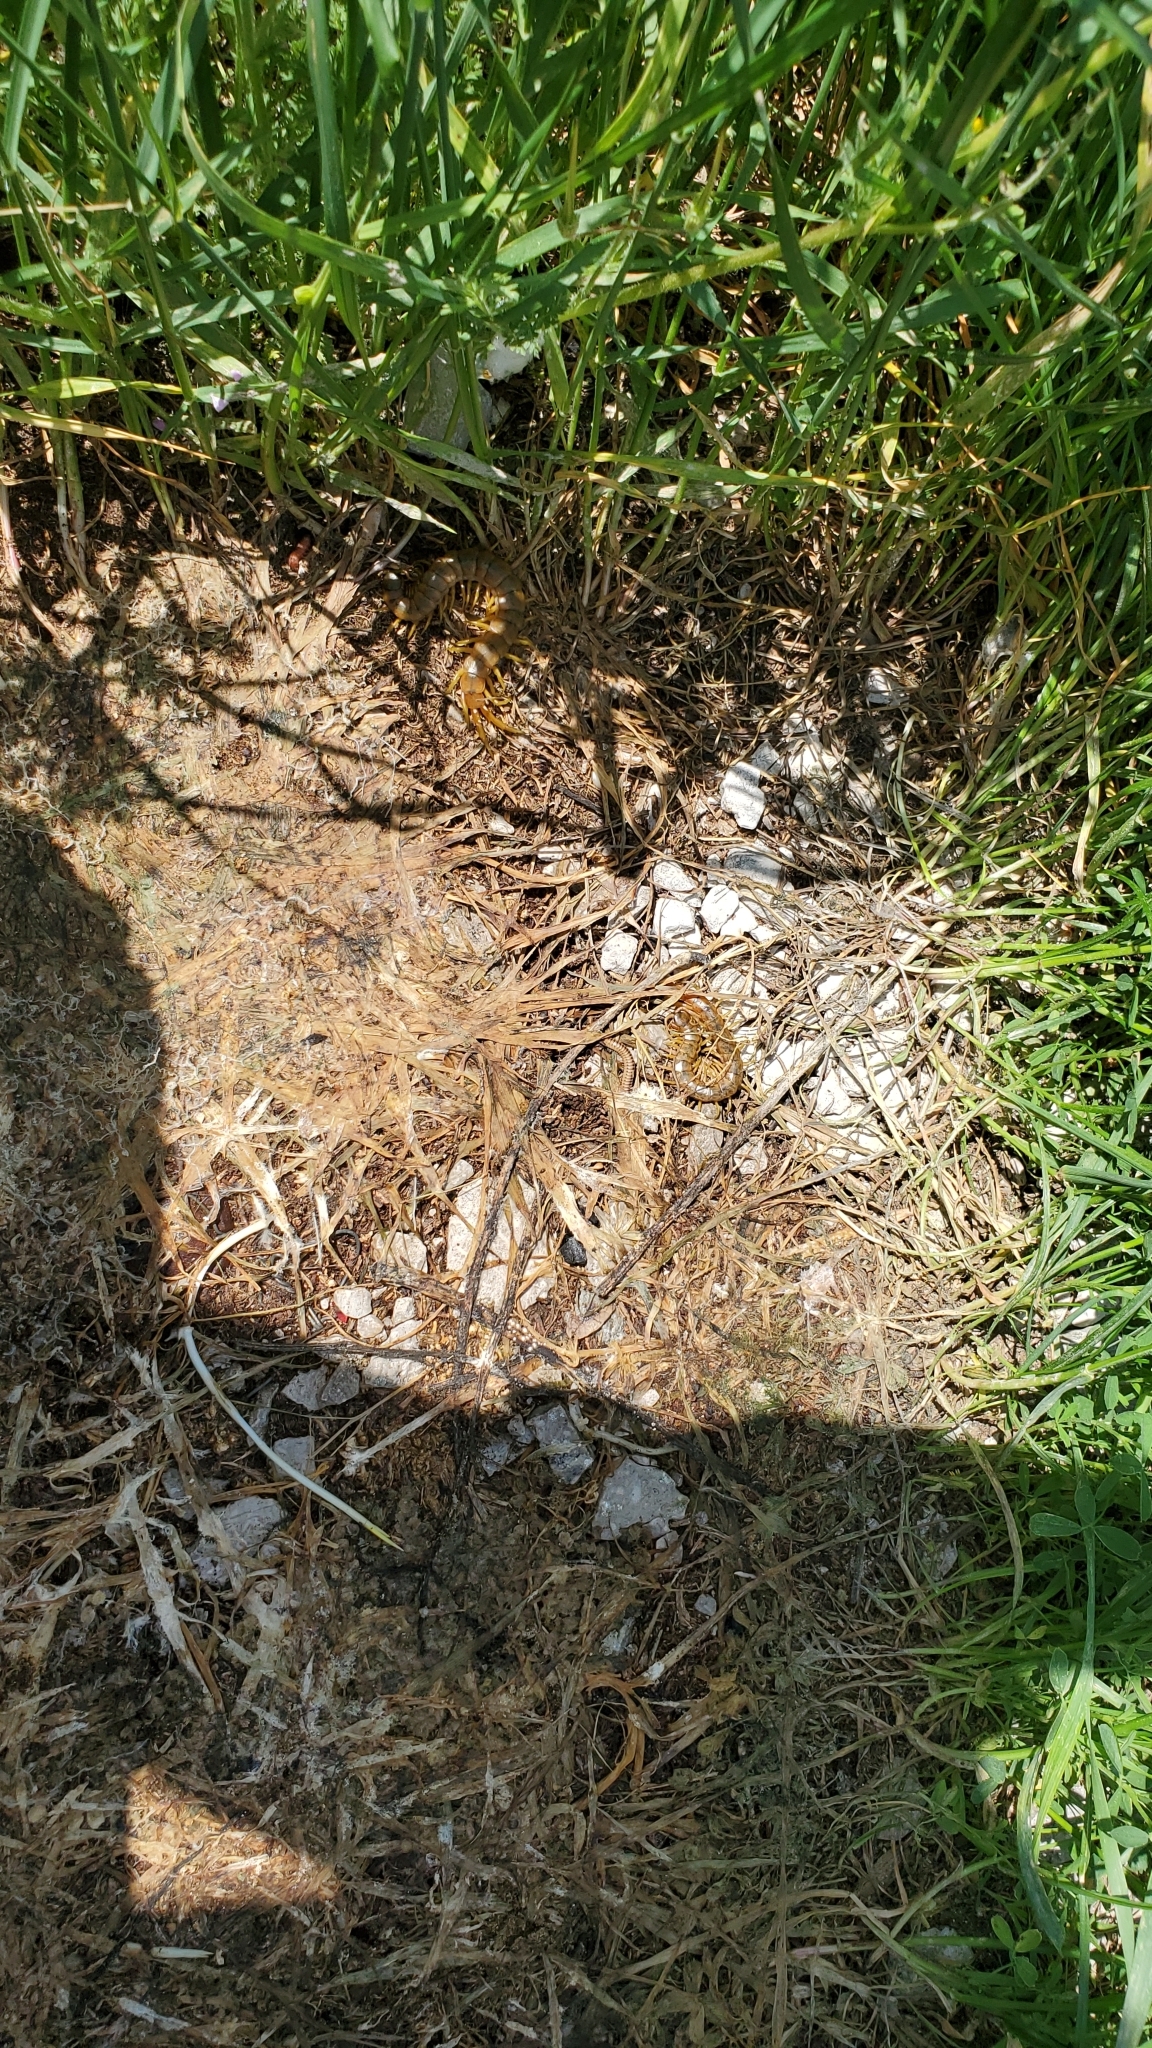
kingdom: Animalia
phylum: Arthropoda
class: Chilopoda
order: Scolopendromorpha
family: Scolopendridae
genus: Scolopendra
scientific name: Scolopendra cingulata
